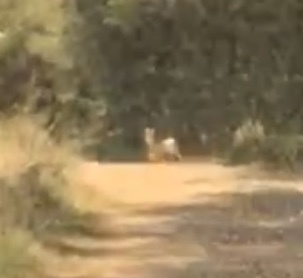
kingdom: Animalia
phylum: Chordata
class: Mammalia
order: Artiodactyla
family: Cervidae
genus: Capreolus
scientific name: Capreolus capreolus
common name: Western roe deer
